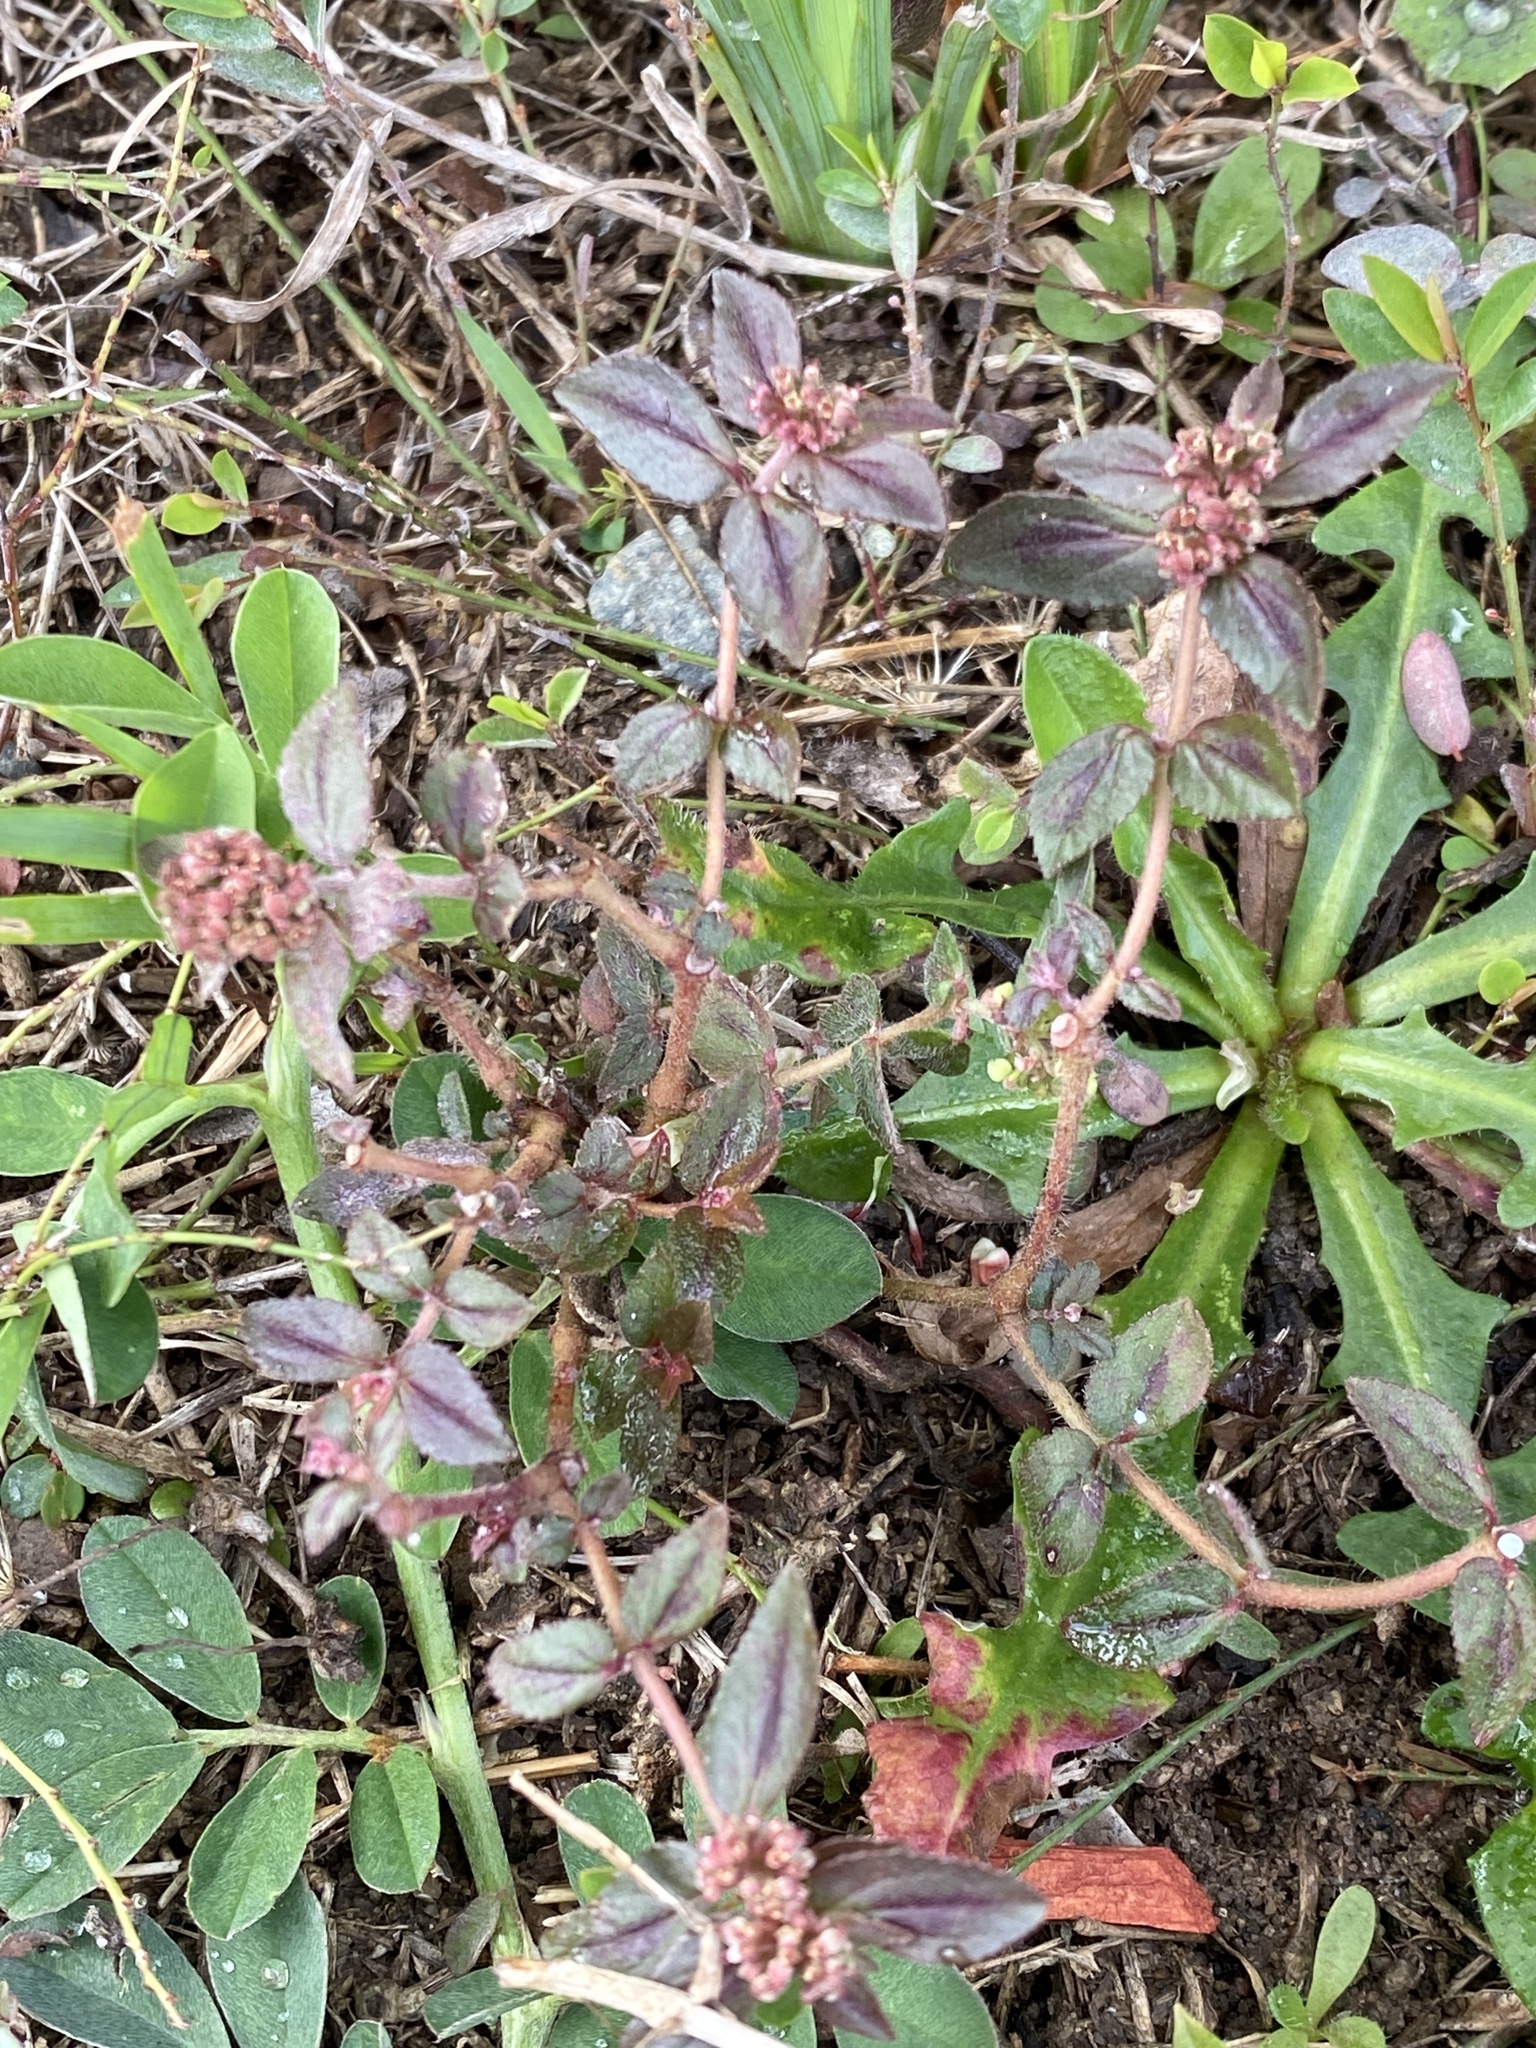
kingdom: Plantae
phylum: Tracheophyta
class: Magnoliopsida
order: Malpighiales
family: Euphorbiaceae
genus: Euphorbia
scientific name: Euphorbia hirta
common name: Pillpod sandmat
